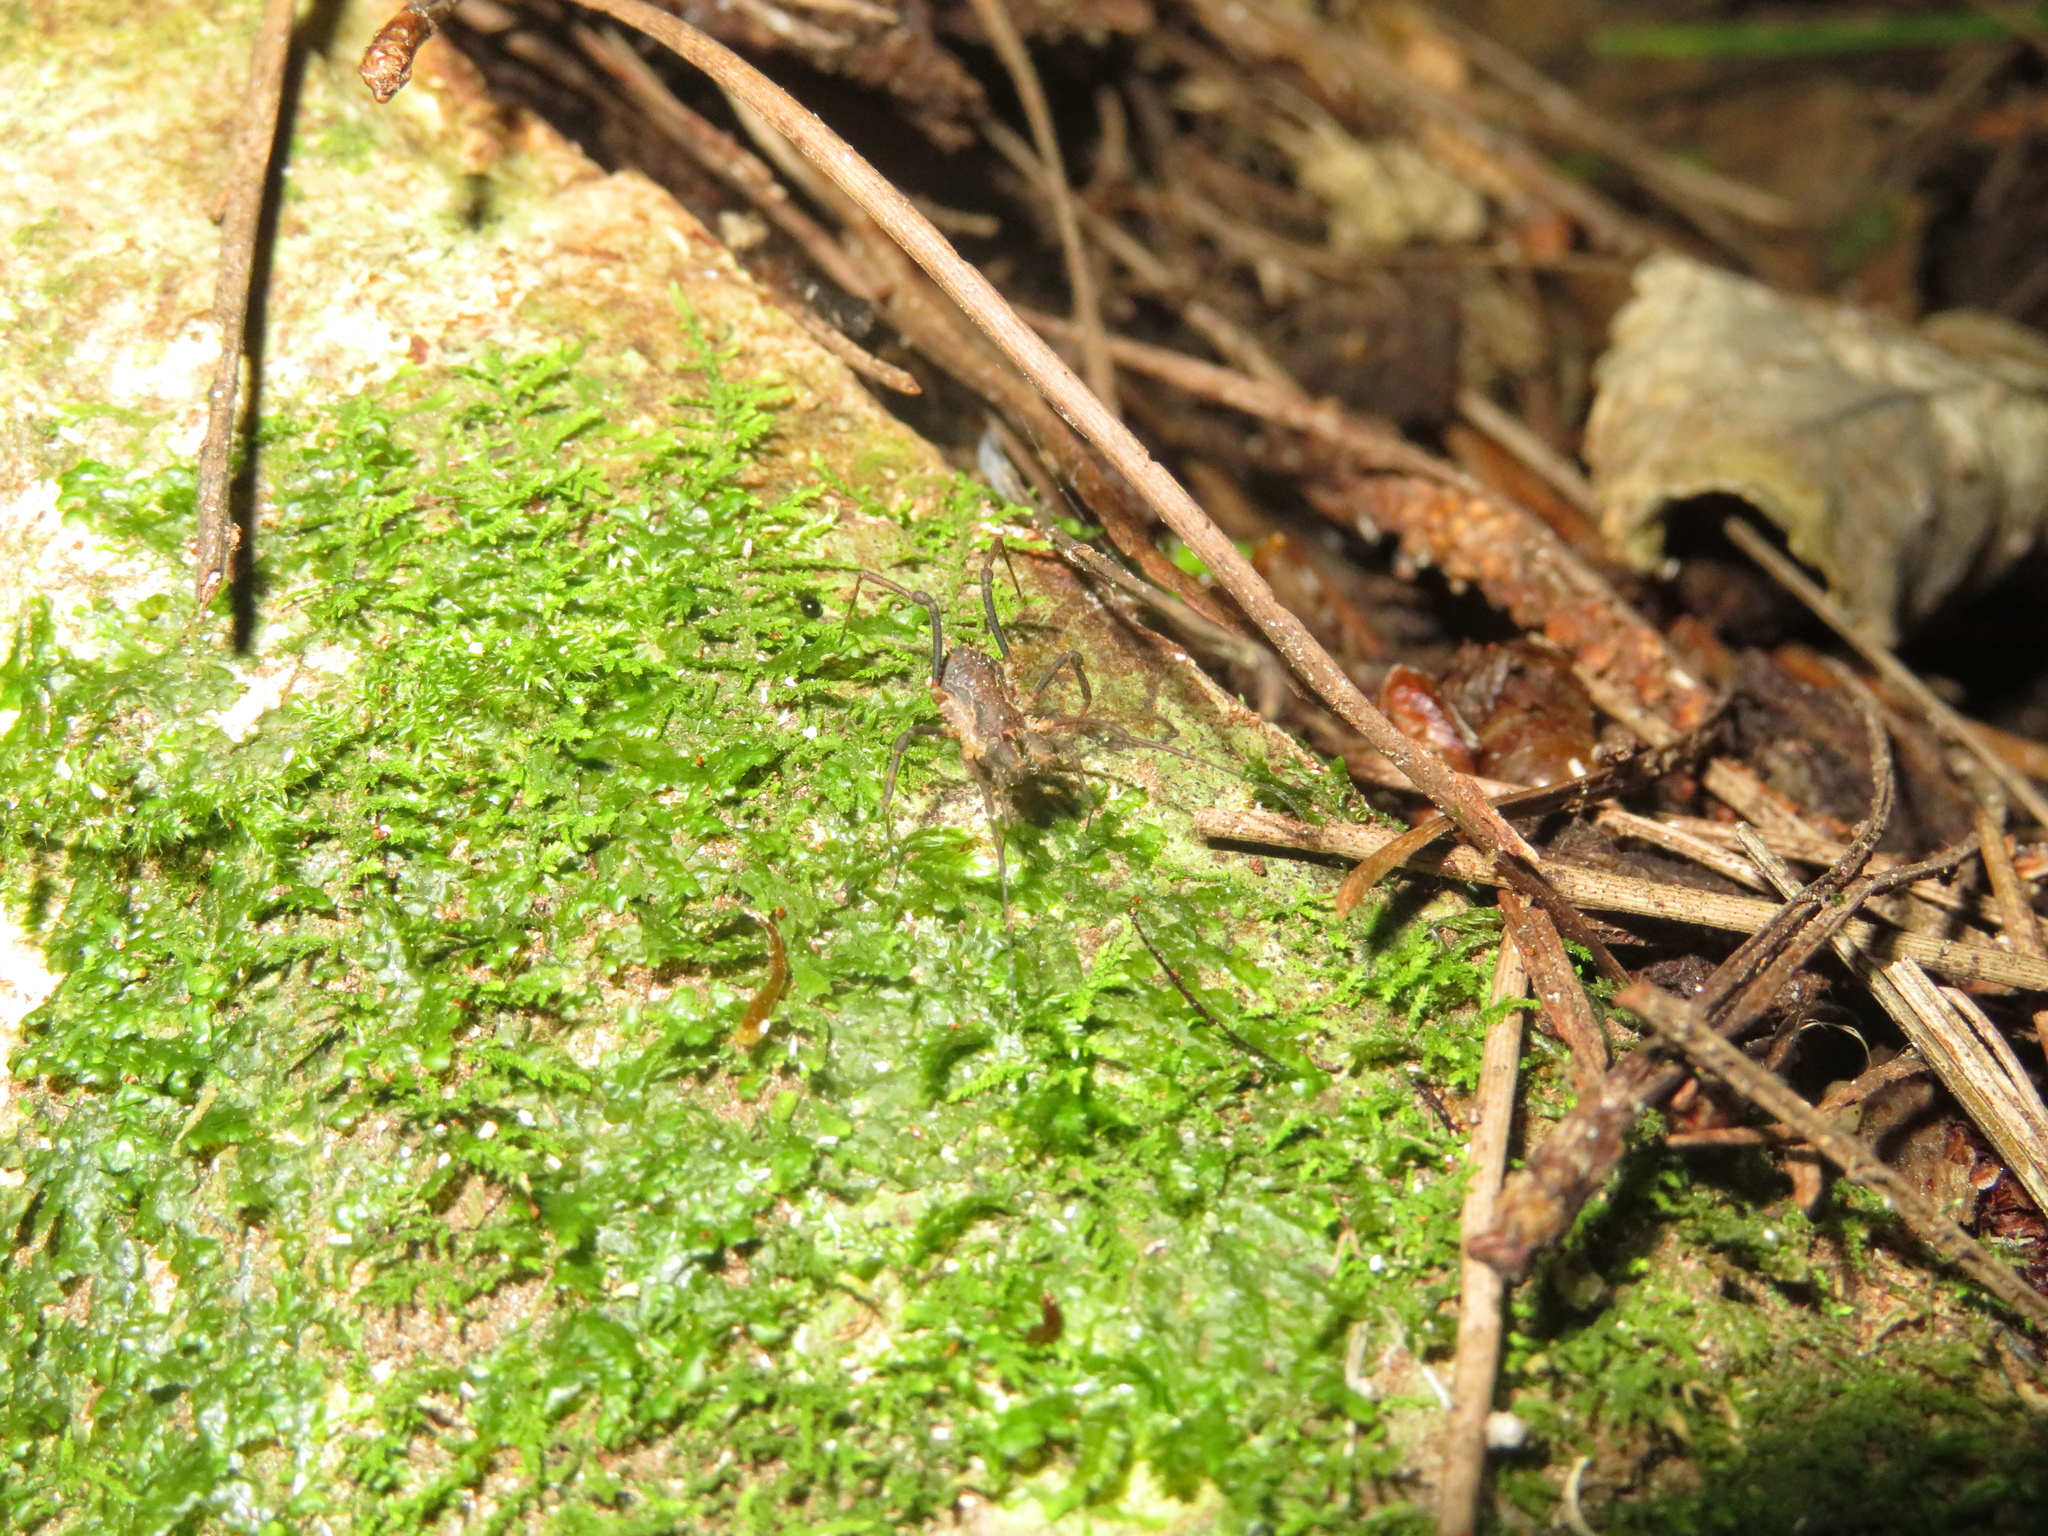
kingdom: Animalia
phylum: Arthropoda
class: Arachnida
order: Opiliones
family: Triaenonychidae
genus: Algidia
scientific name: Algidia chiltoni
